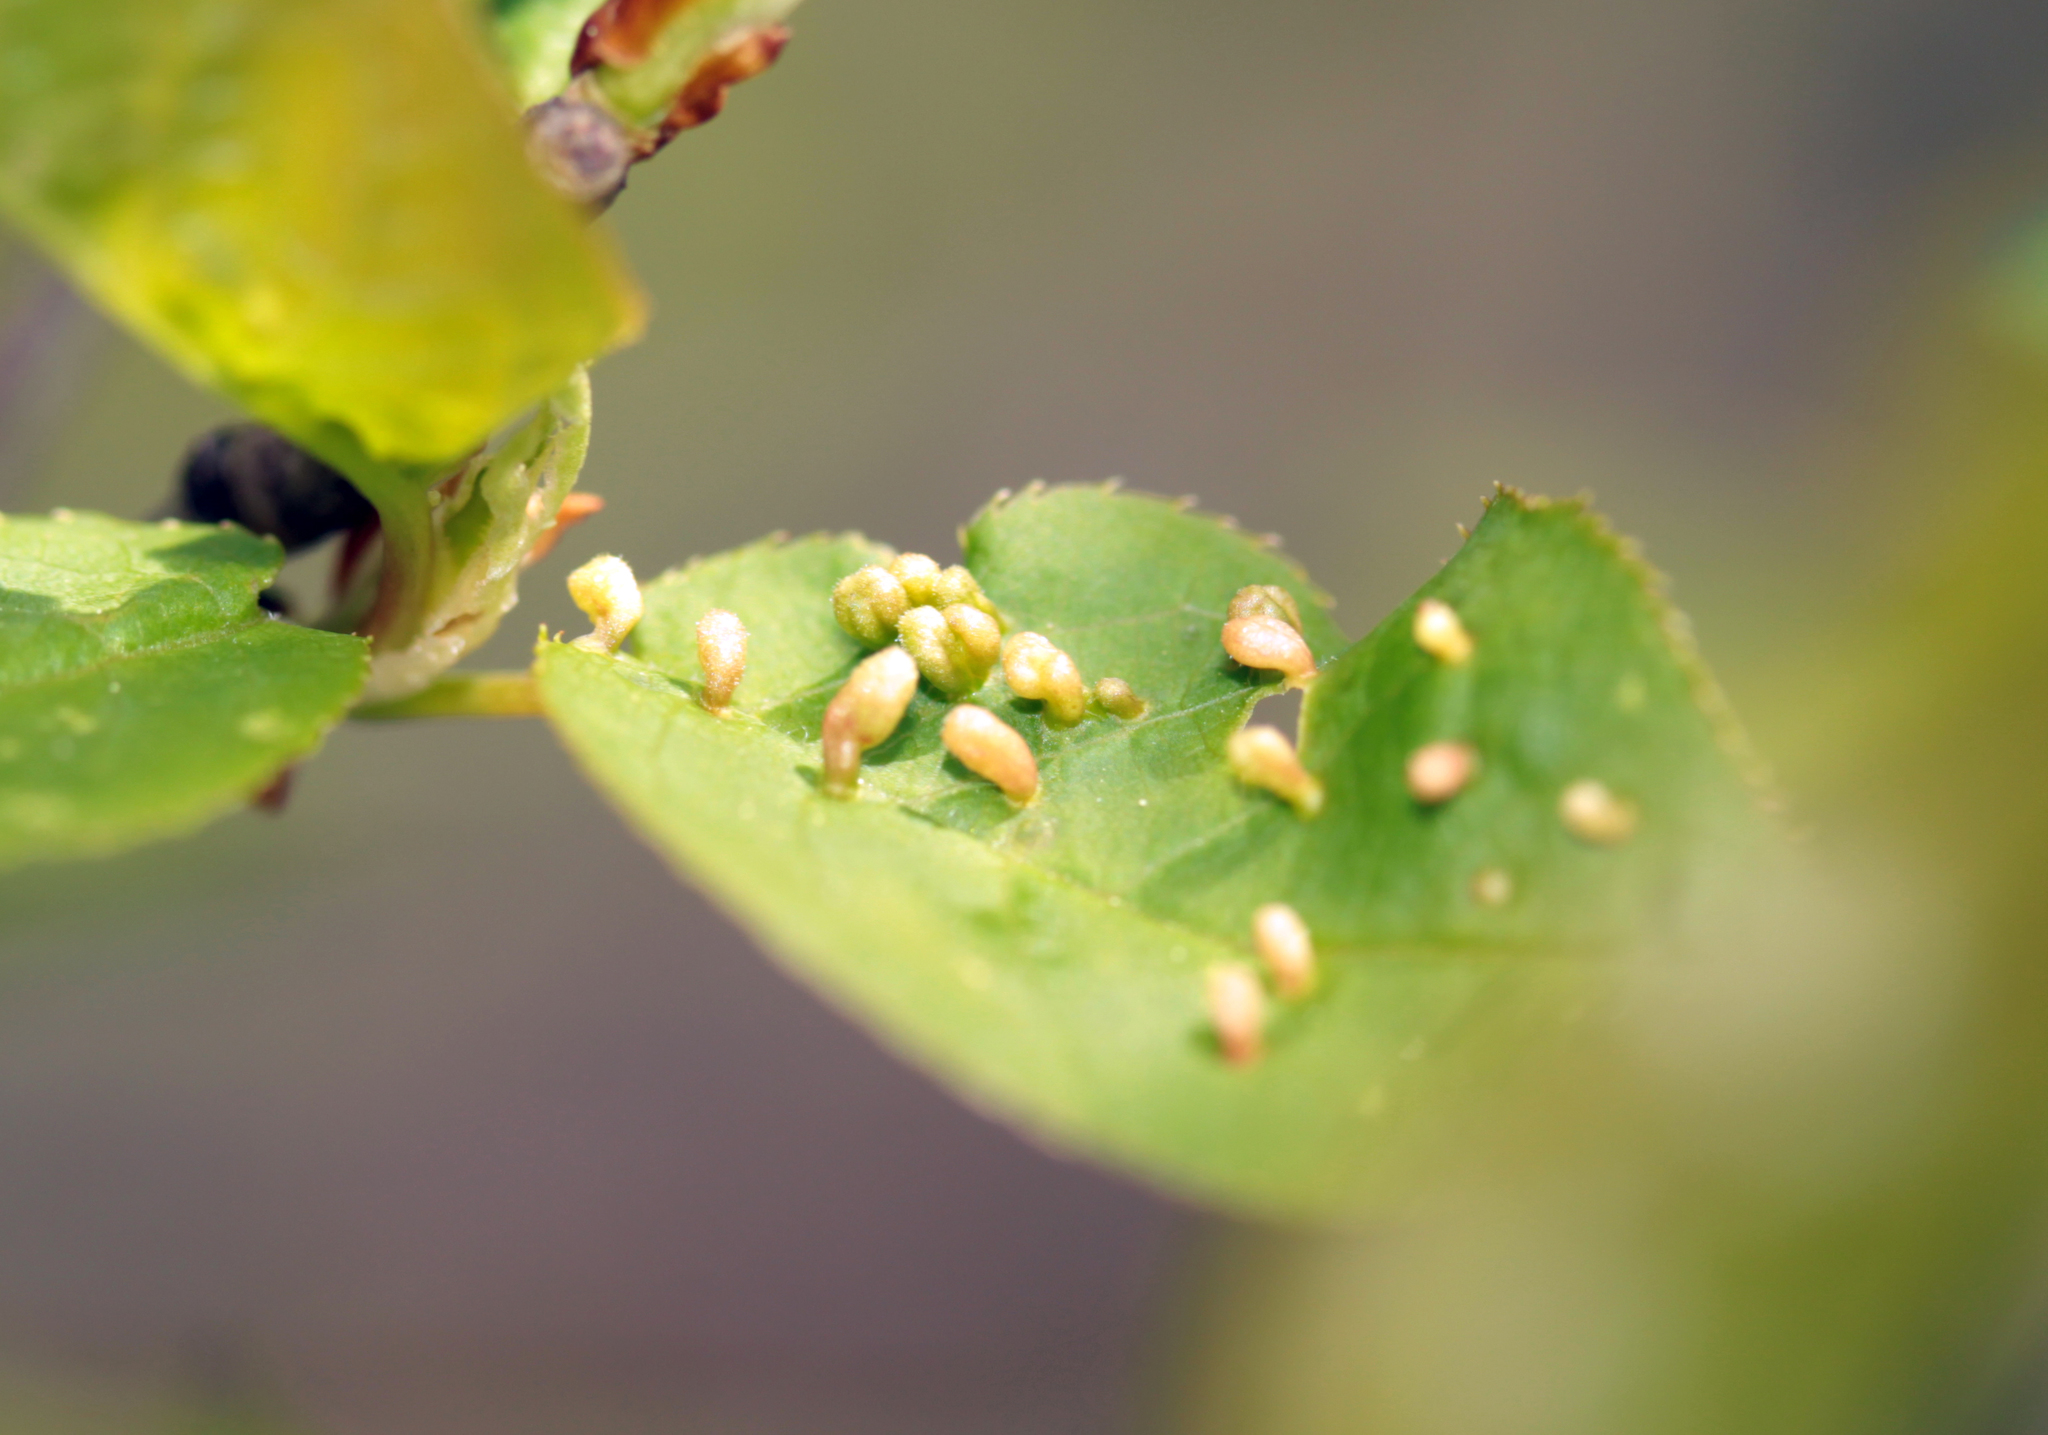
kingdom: Animalia
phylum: Arthropoda
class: Arachnida
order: Trombidiformes
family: Eriophyidae
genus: Eriophyes
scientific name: Eriophyes emarginatae
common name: Plum leaf gall mite
